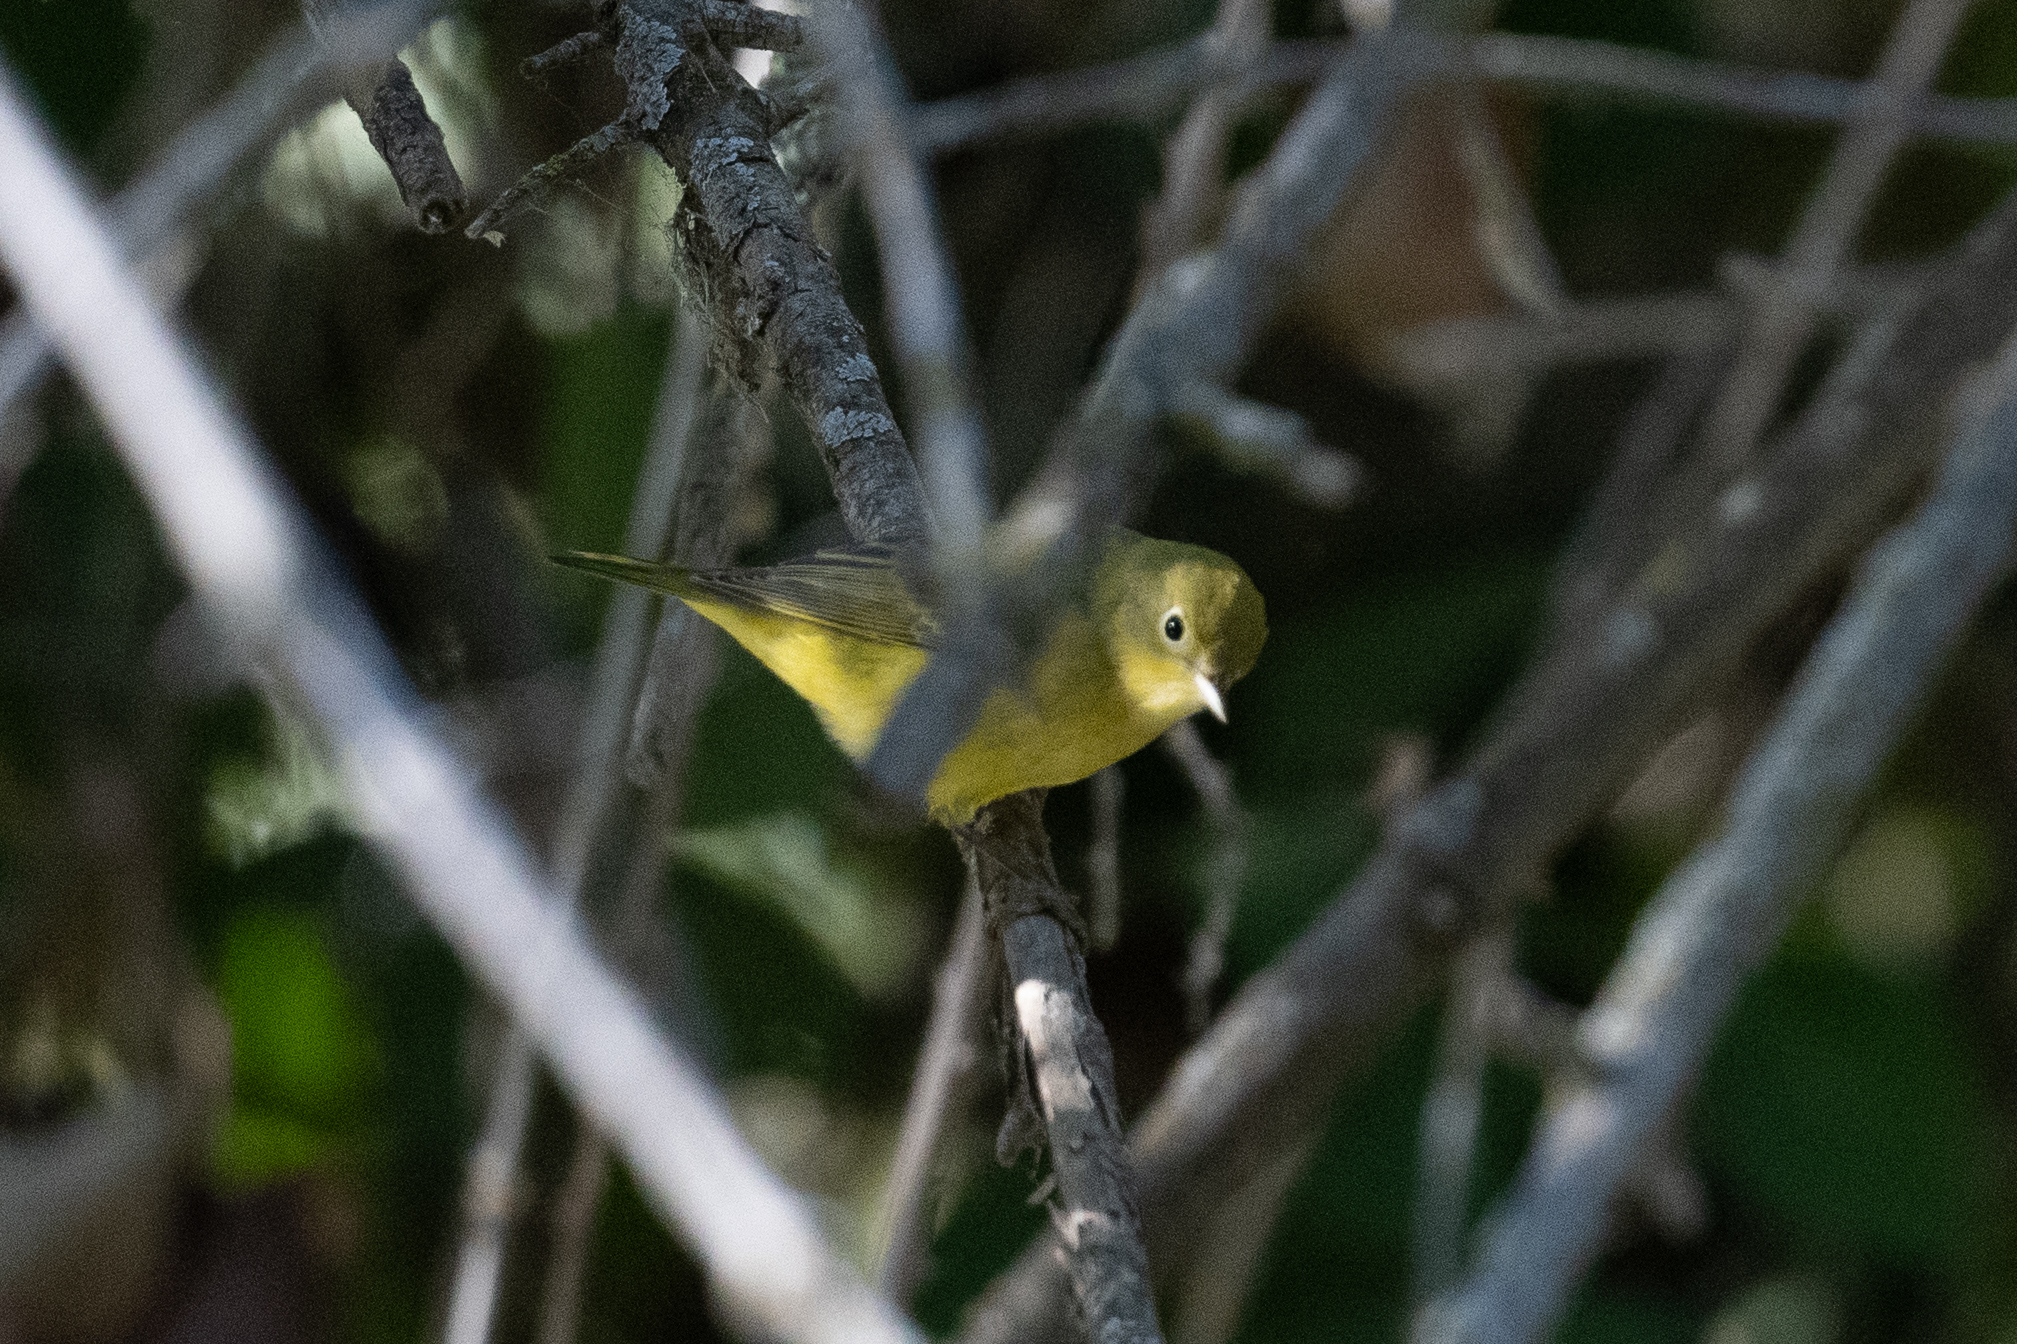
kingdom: Animalia
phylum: Chordata
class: Aves
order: Passeriformes
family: Parulidae
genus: Setophaga
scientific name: Setophaga petechia
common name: Yellow warbler
